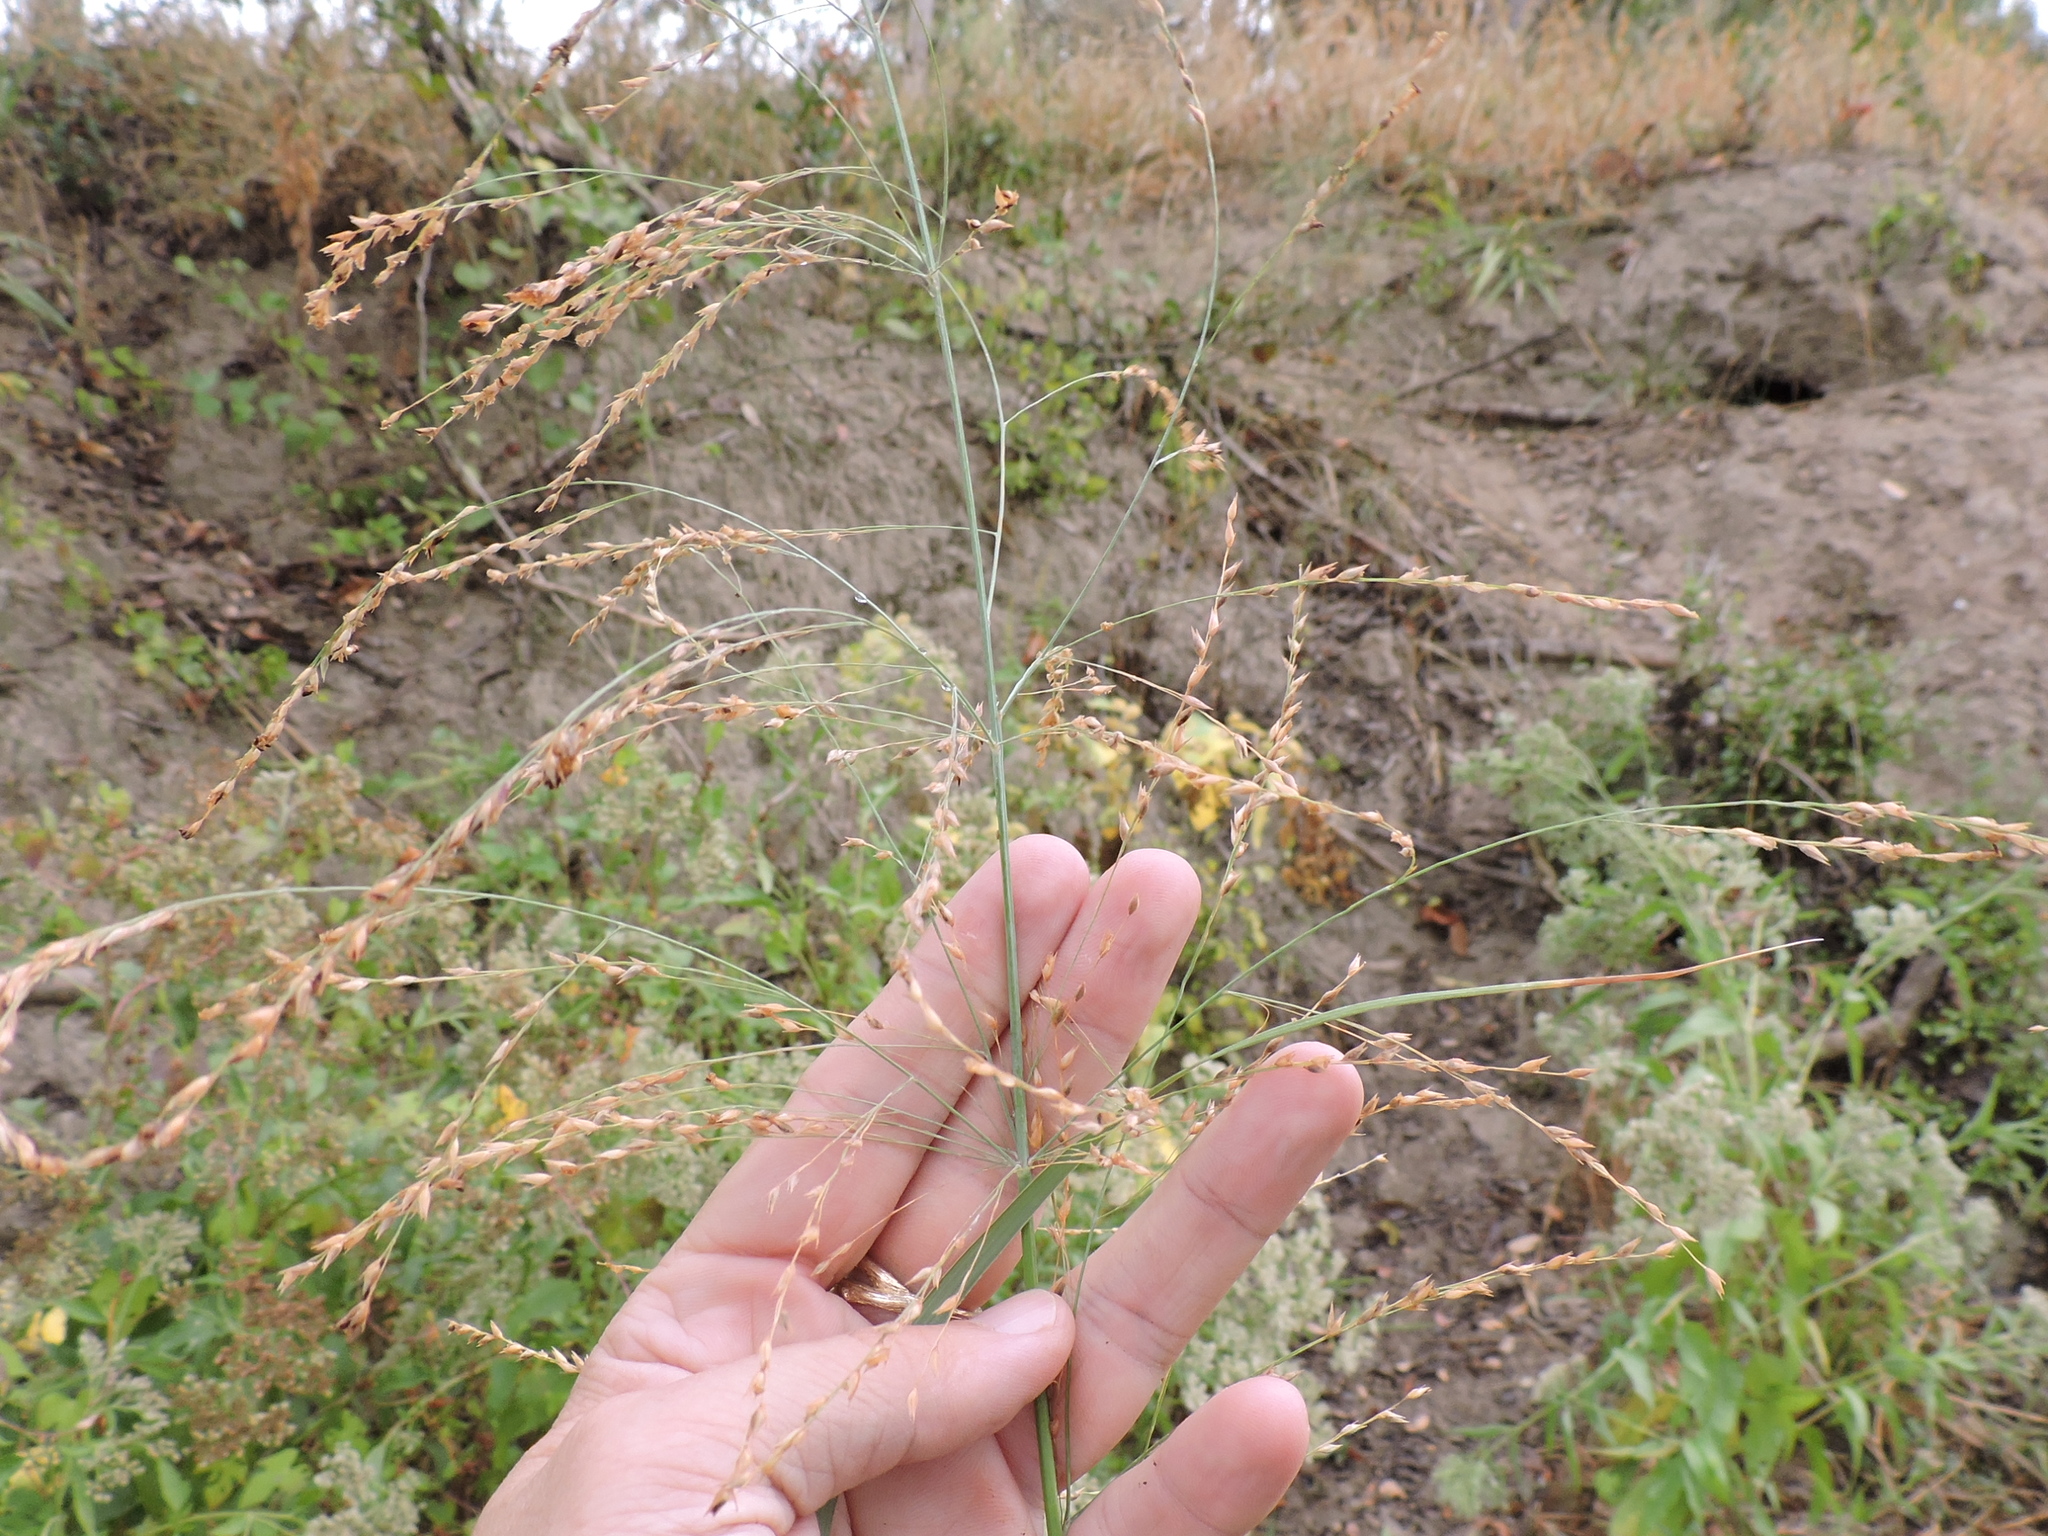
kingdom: Plantae
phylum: Tracheophyta
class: Liliopsida
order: Poales
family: Poaceae
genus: Panicum
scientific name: Panicum virgatum
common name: Switchgrass
